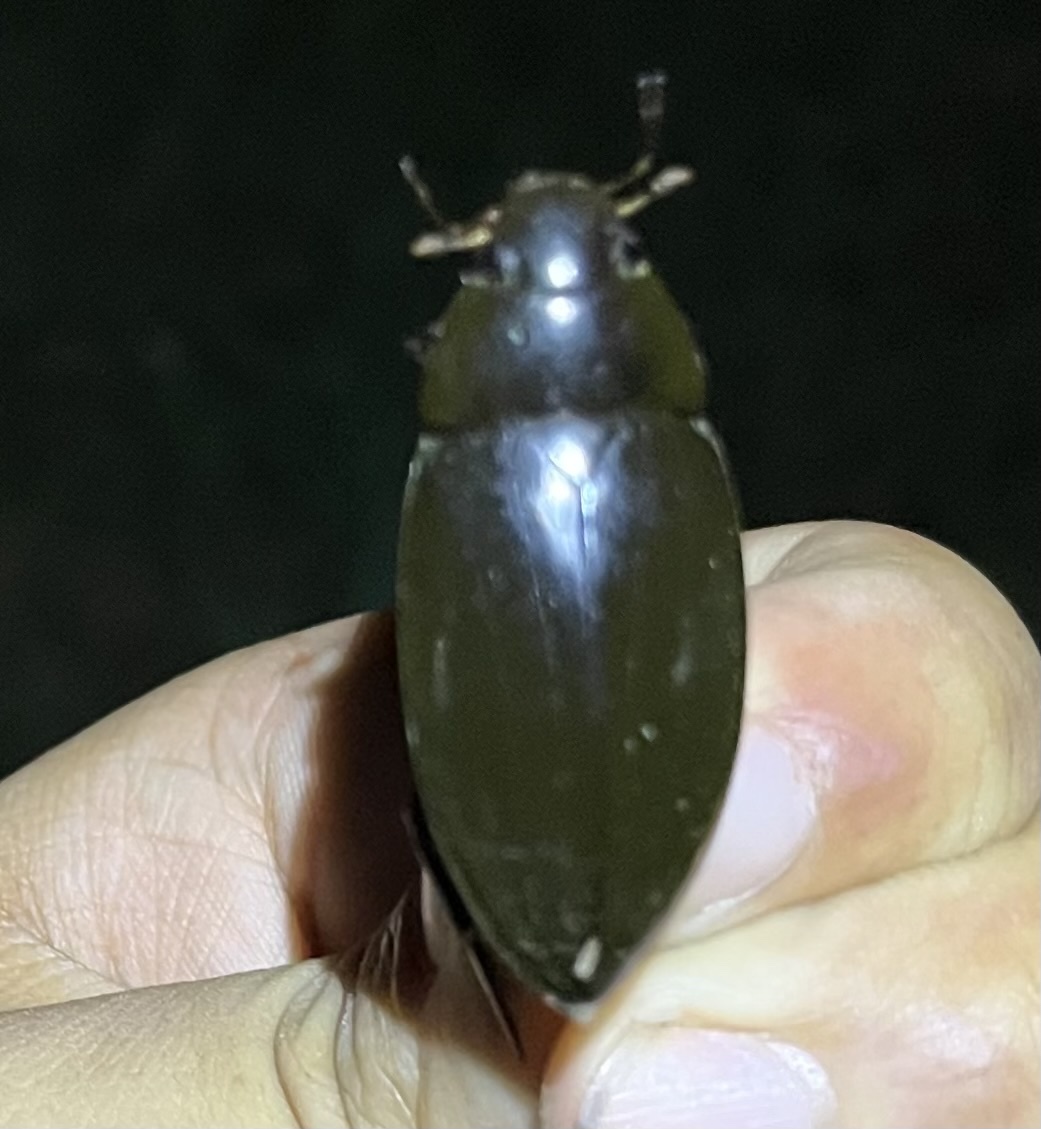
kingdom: Animalia
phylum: Arthropoda
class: Insecta
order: Coleoptera
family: Hydrophilidae
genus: Hydrophilus
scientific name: Hydrophilus triangularis
